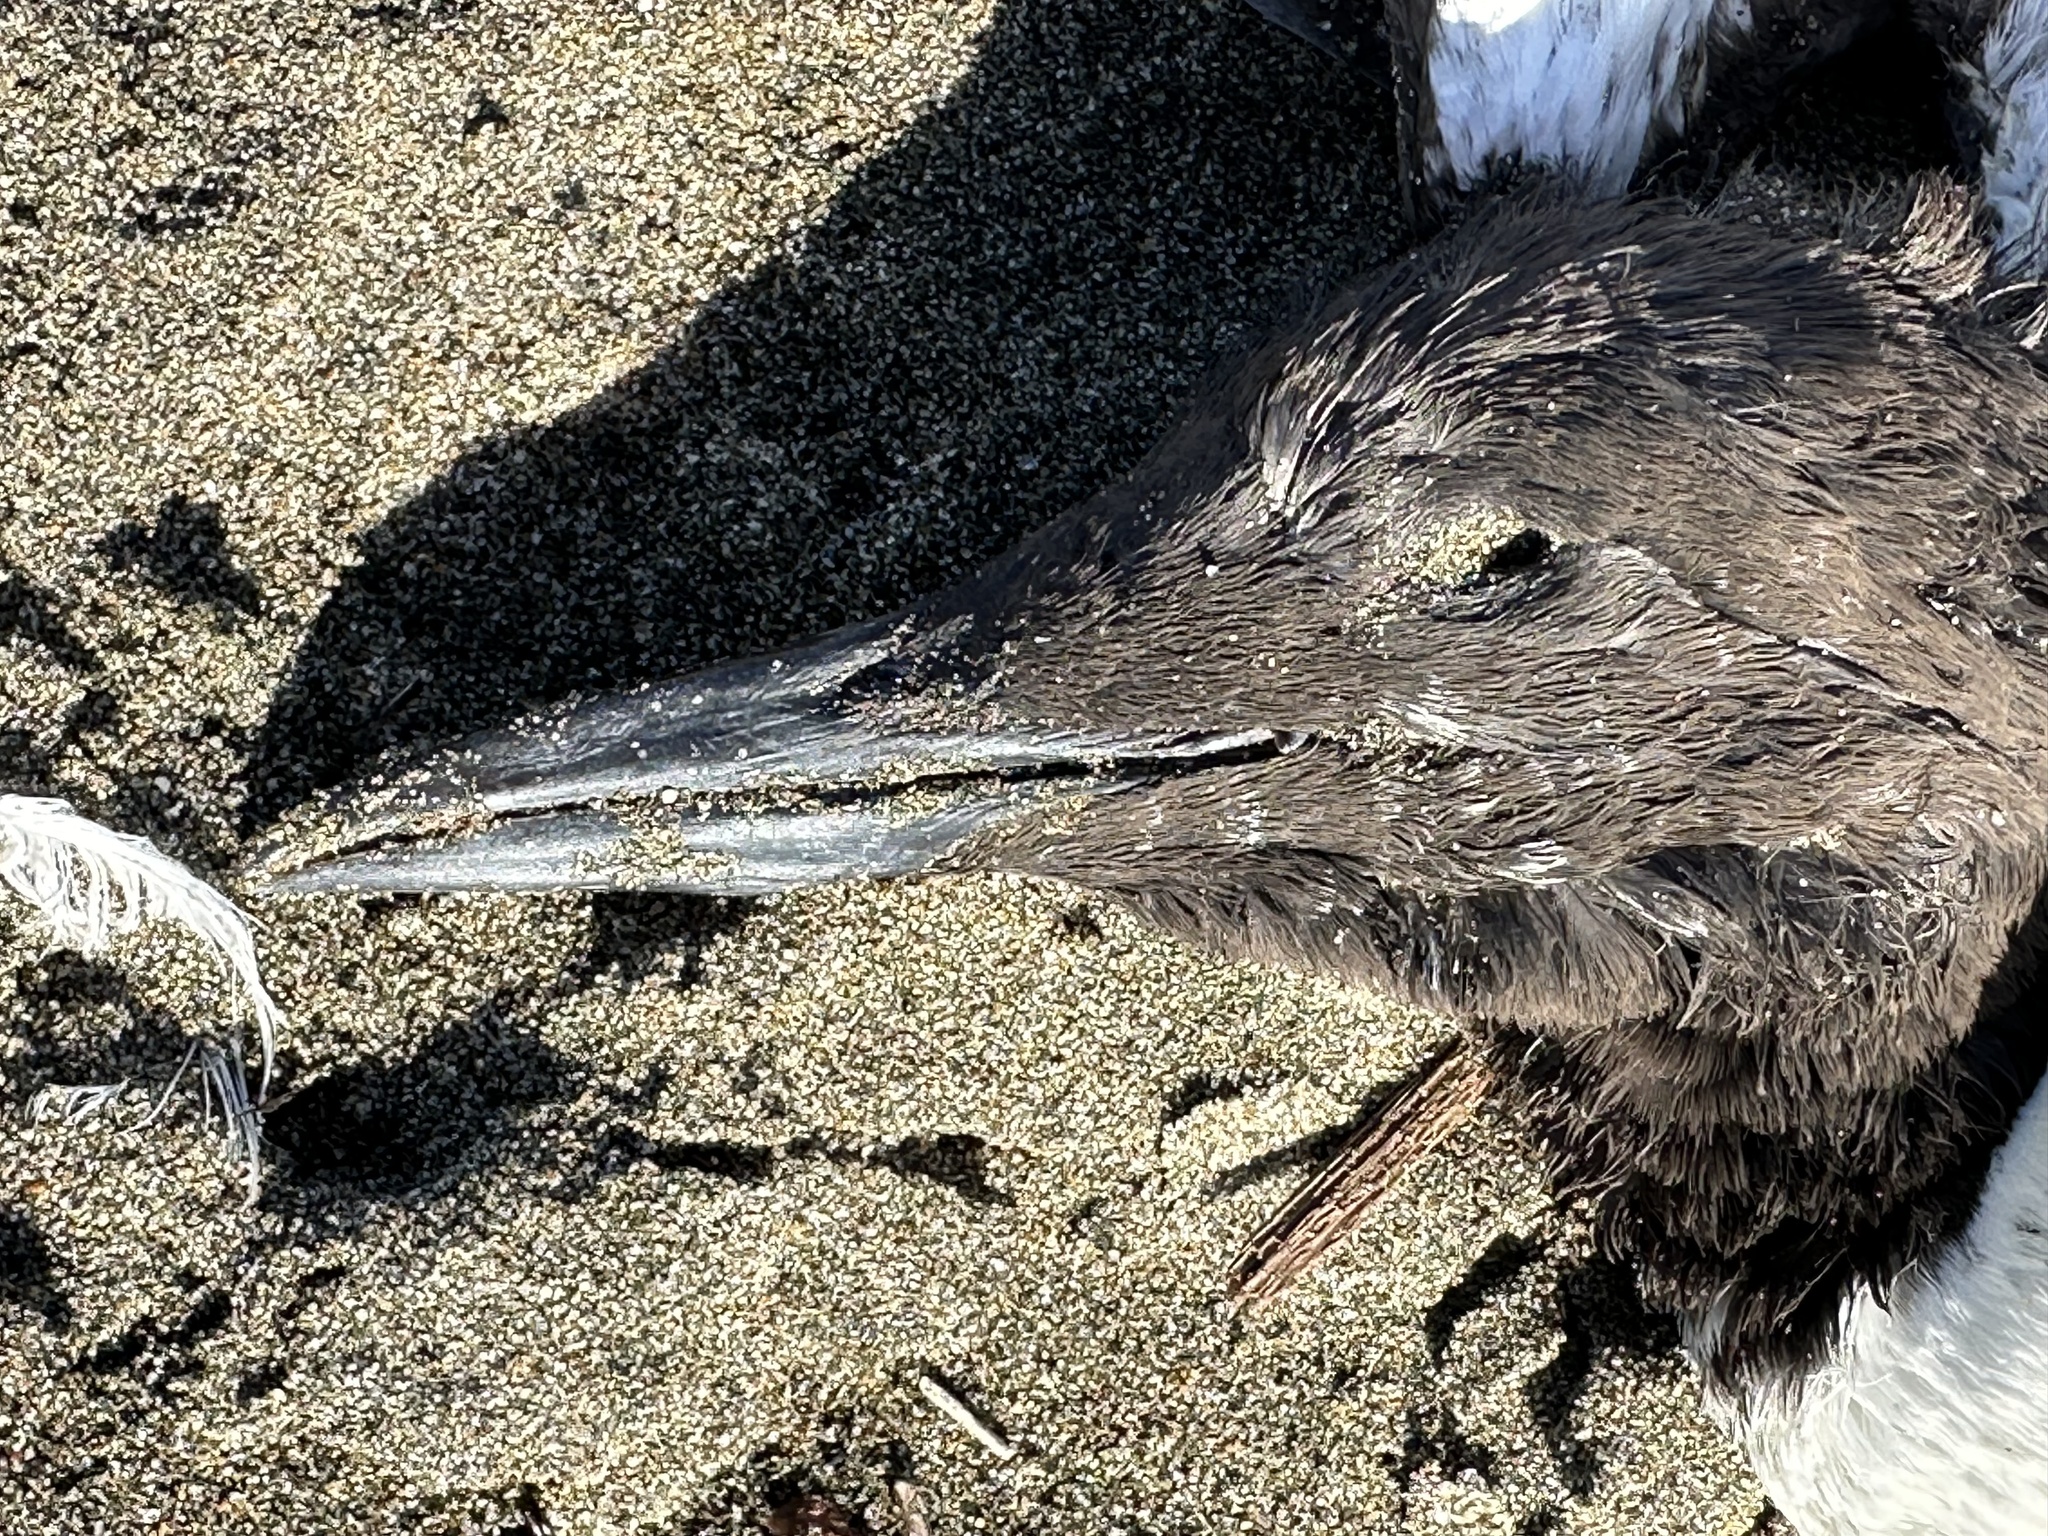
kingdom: Animalia
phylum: Chordata
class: Aves
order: Charadriiformes
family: Alcidae
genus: Uria
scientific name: Uria aalge
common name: Common murre
